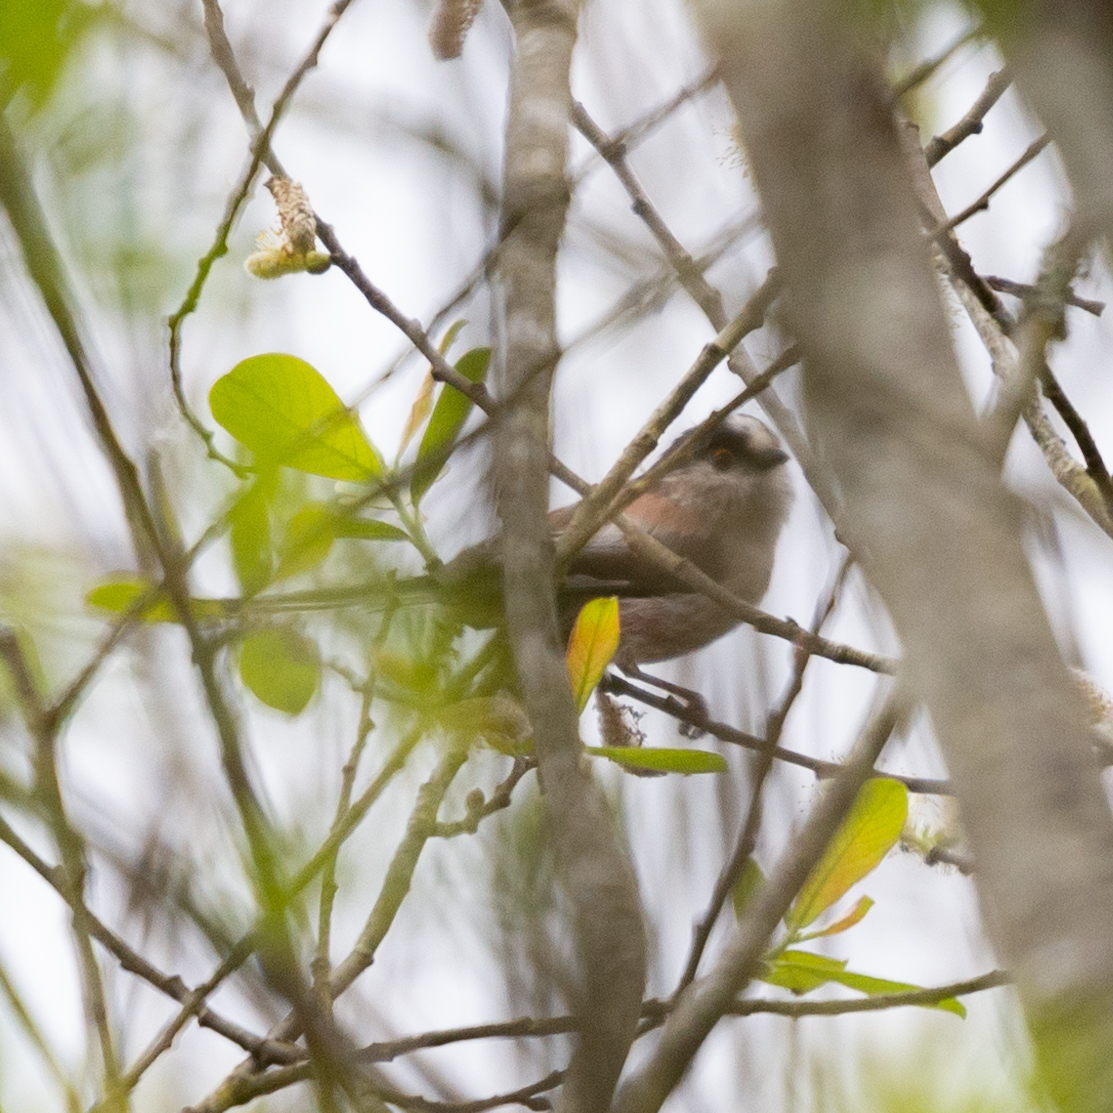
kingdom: Animalia
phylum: Chordata
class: Aves
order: Passeriformes
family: Aegithalidae
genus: Aegithalos
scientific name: Aegithalos caudatus
